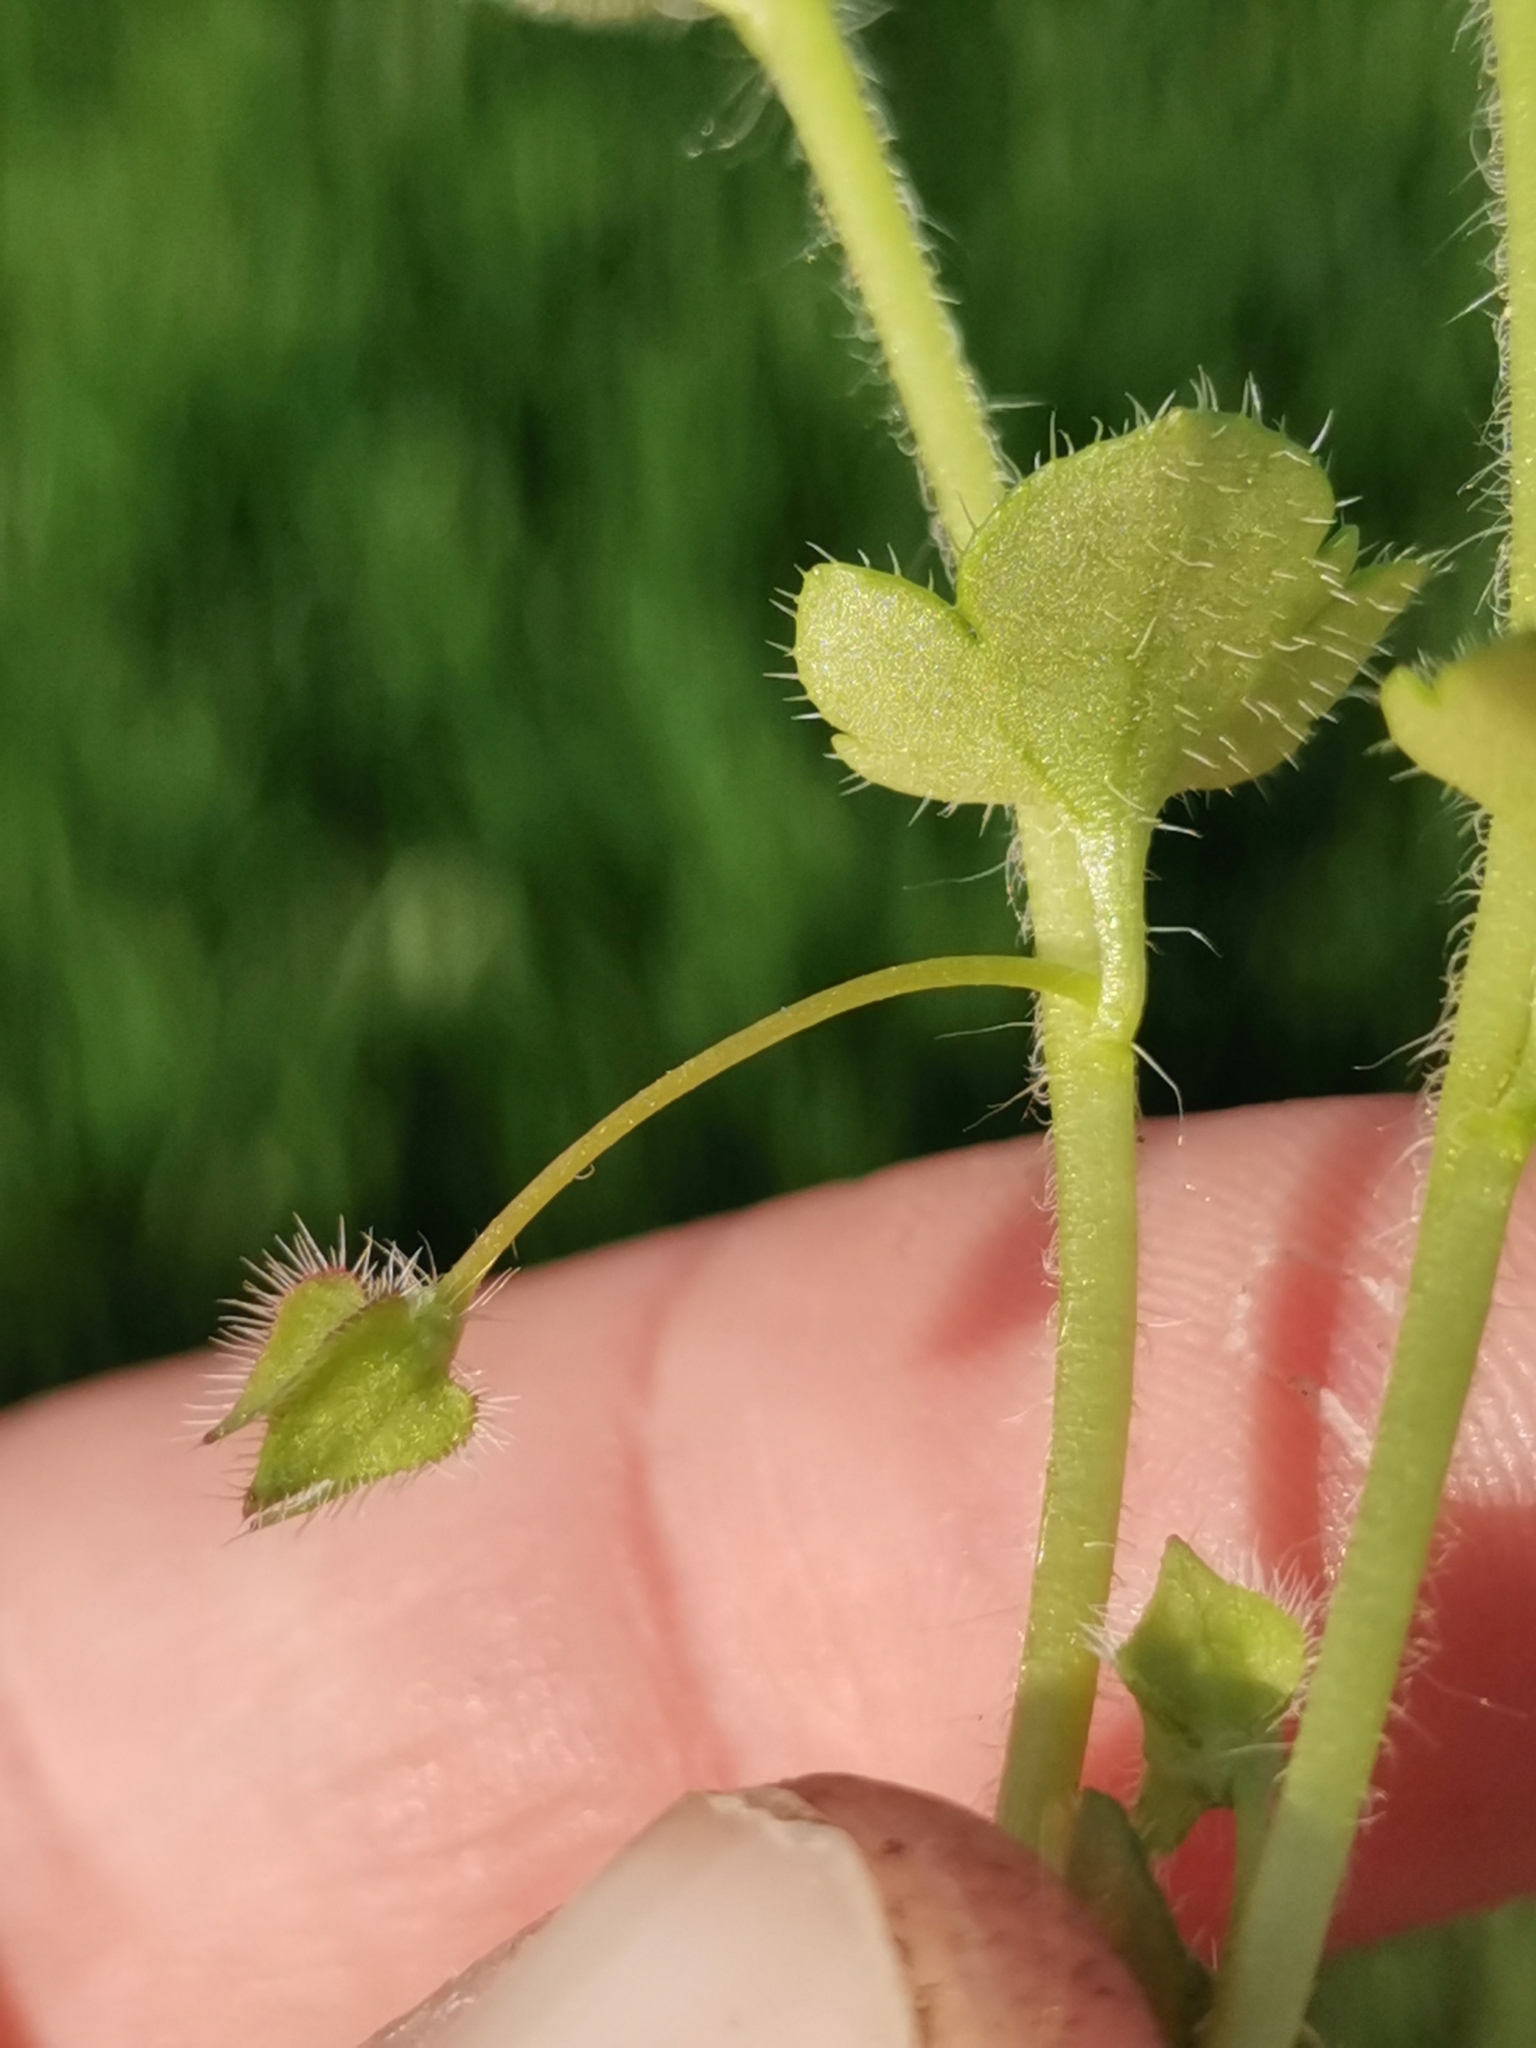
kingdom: Plantae
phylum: Tracheophyta
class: Magnoliopsida
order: Lamiales
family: Plantaginaceae
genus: Veronica
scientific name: Veronica hederifolia
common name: Ivy-leaved speedwell
